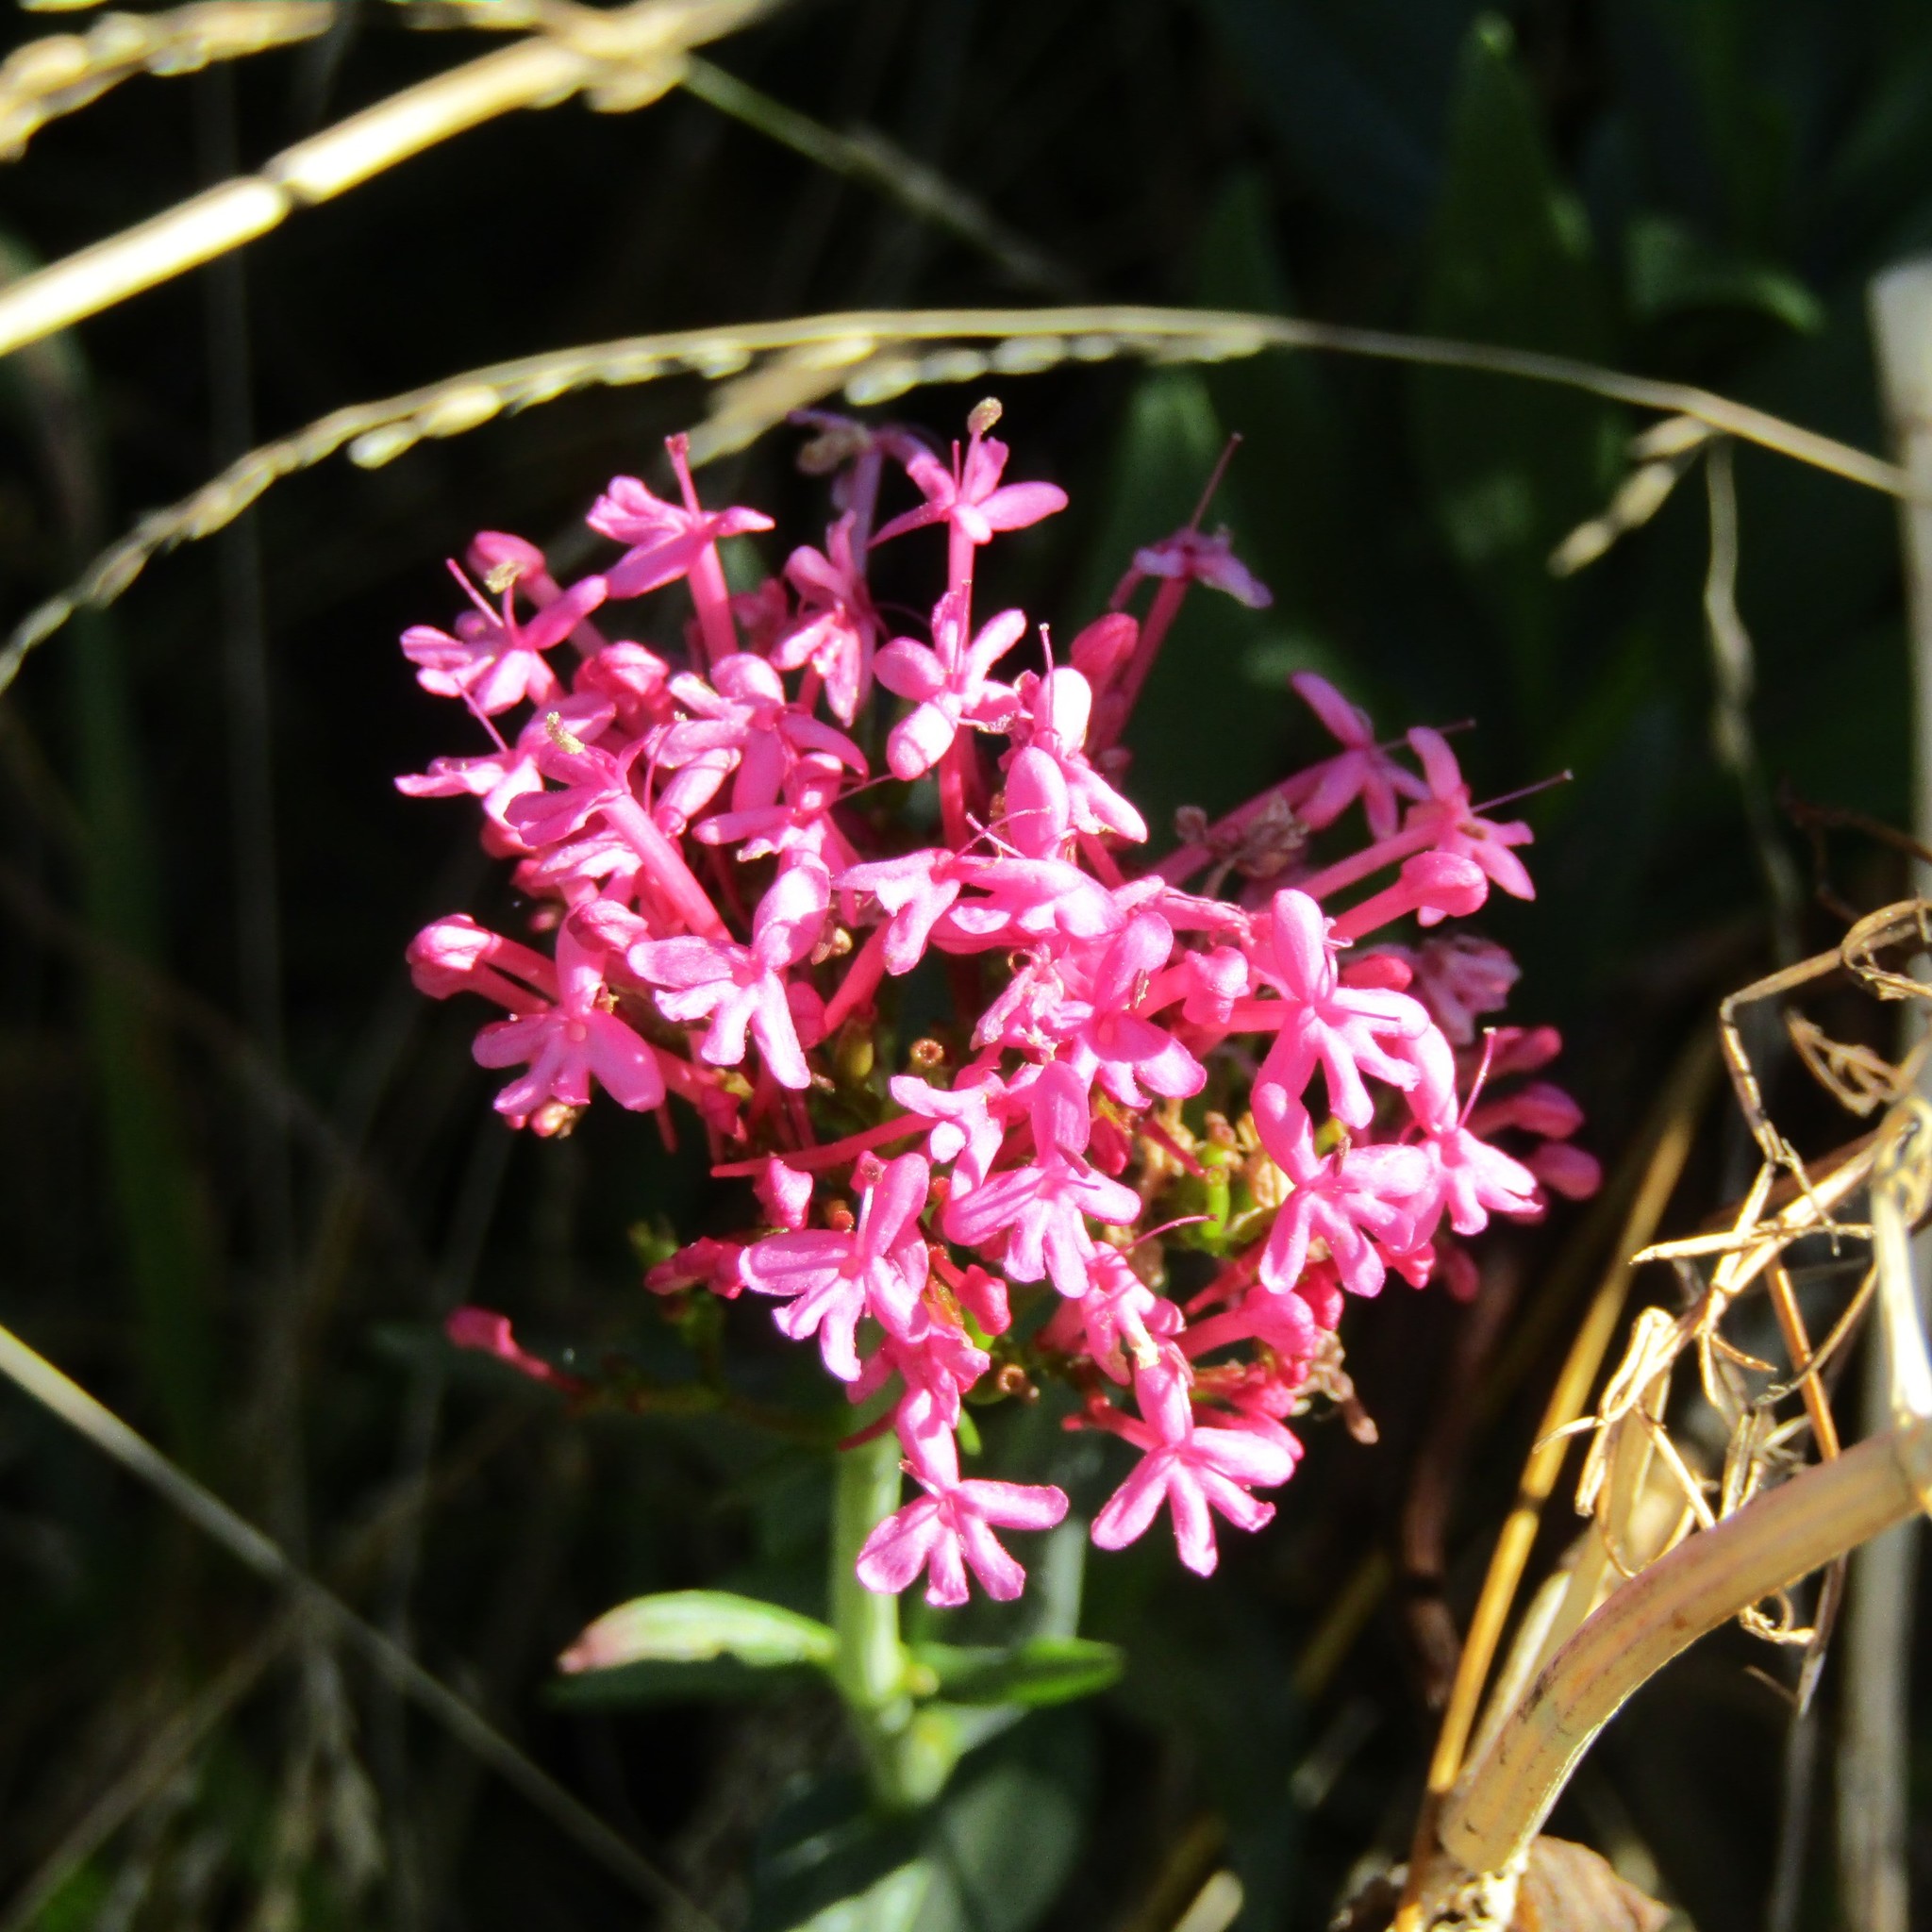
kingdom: Plantae
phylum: Tracheophyta
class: Magnoliopsida
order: Dipsacales
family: Caprifoliaceae
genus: Centranthus
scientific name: Centranthus ruber
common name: Red valerian
